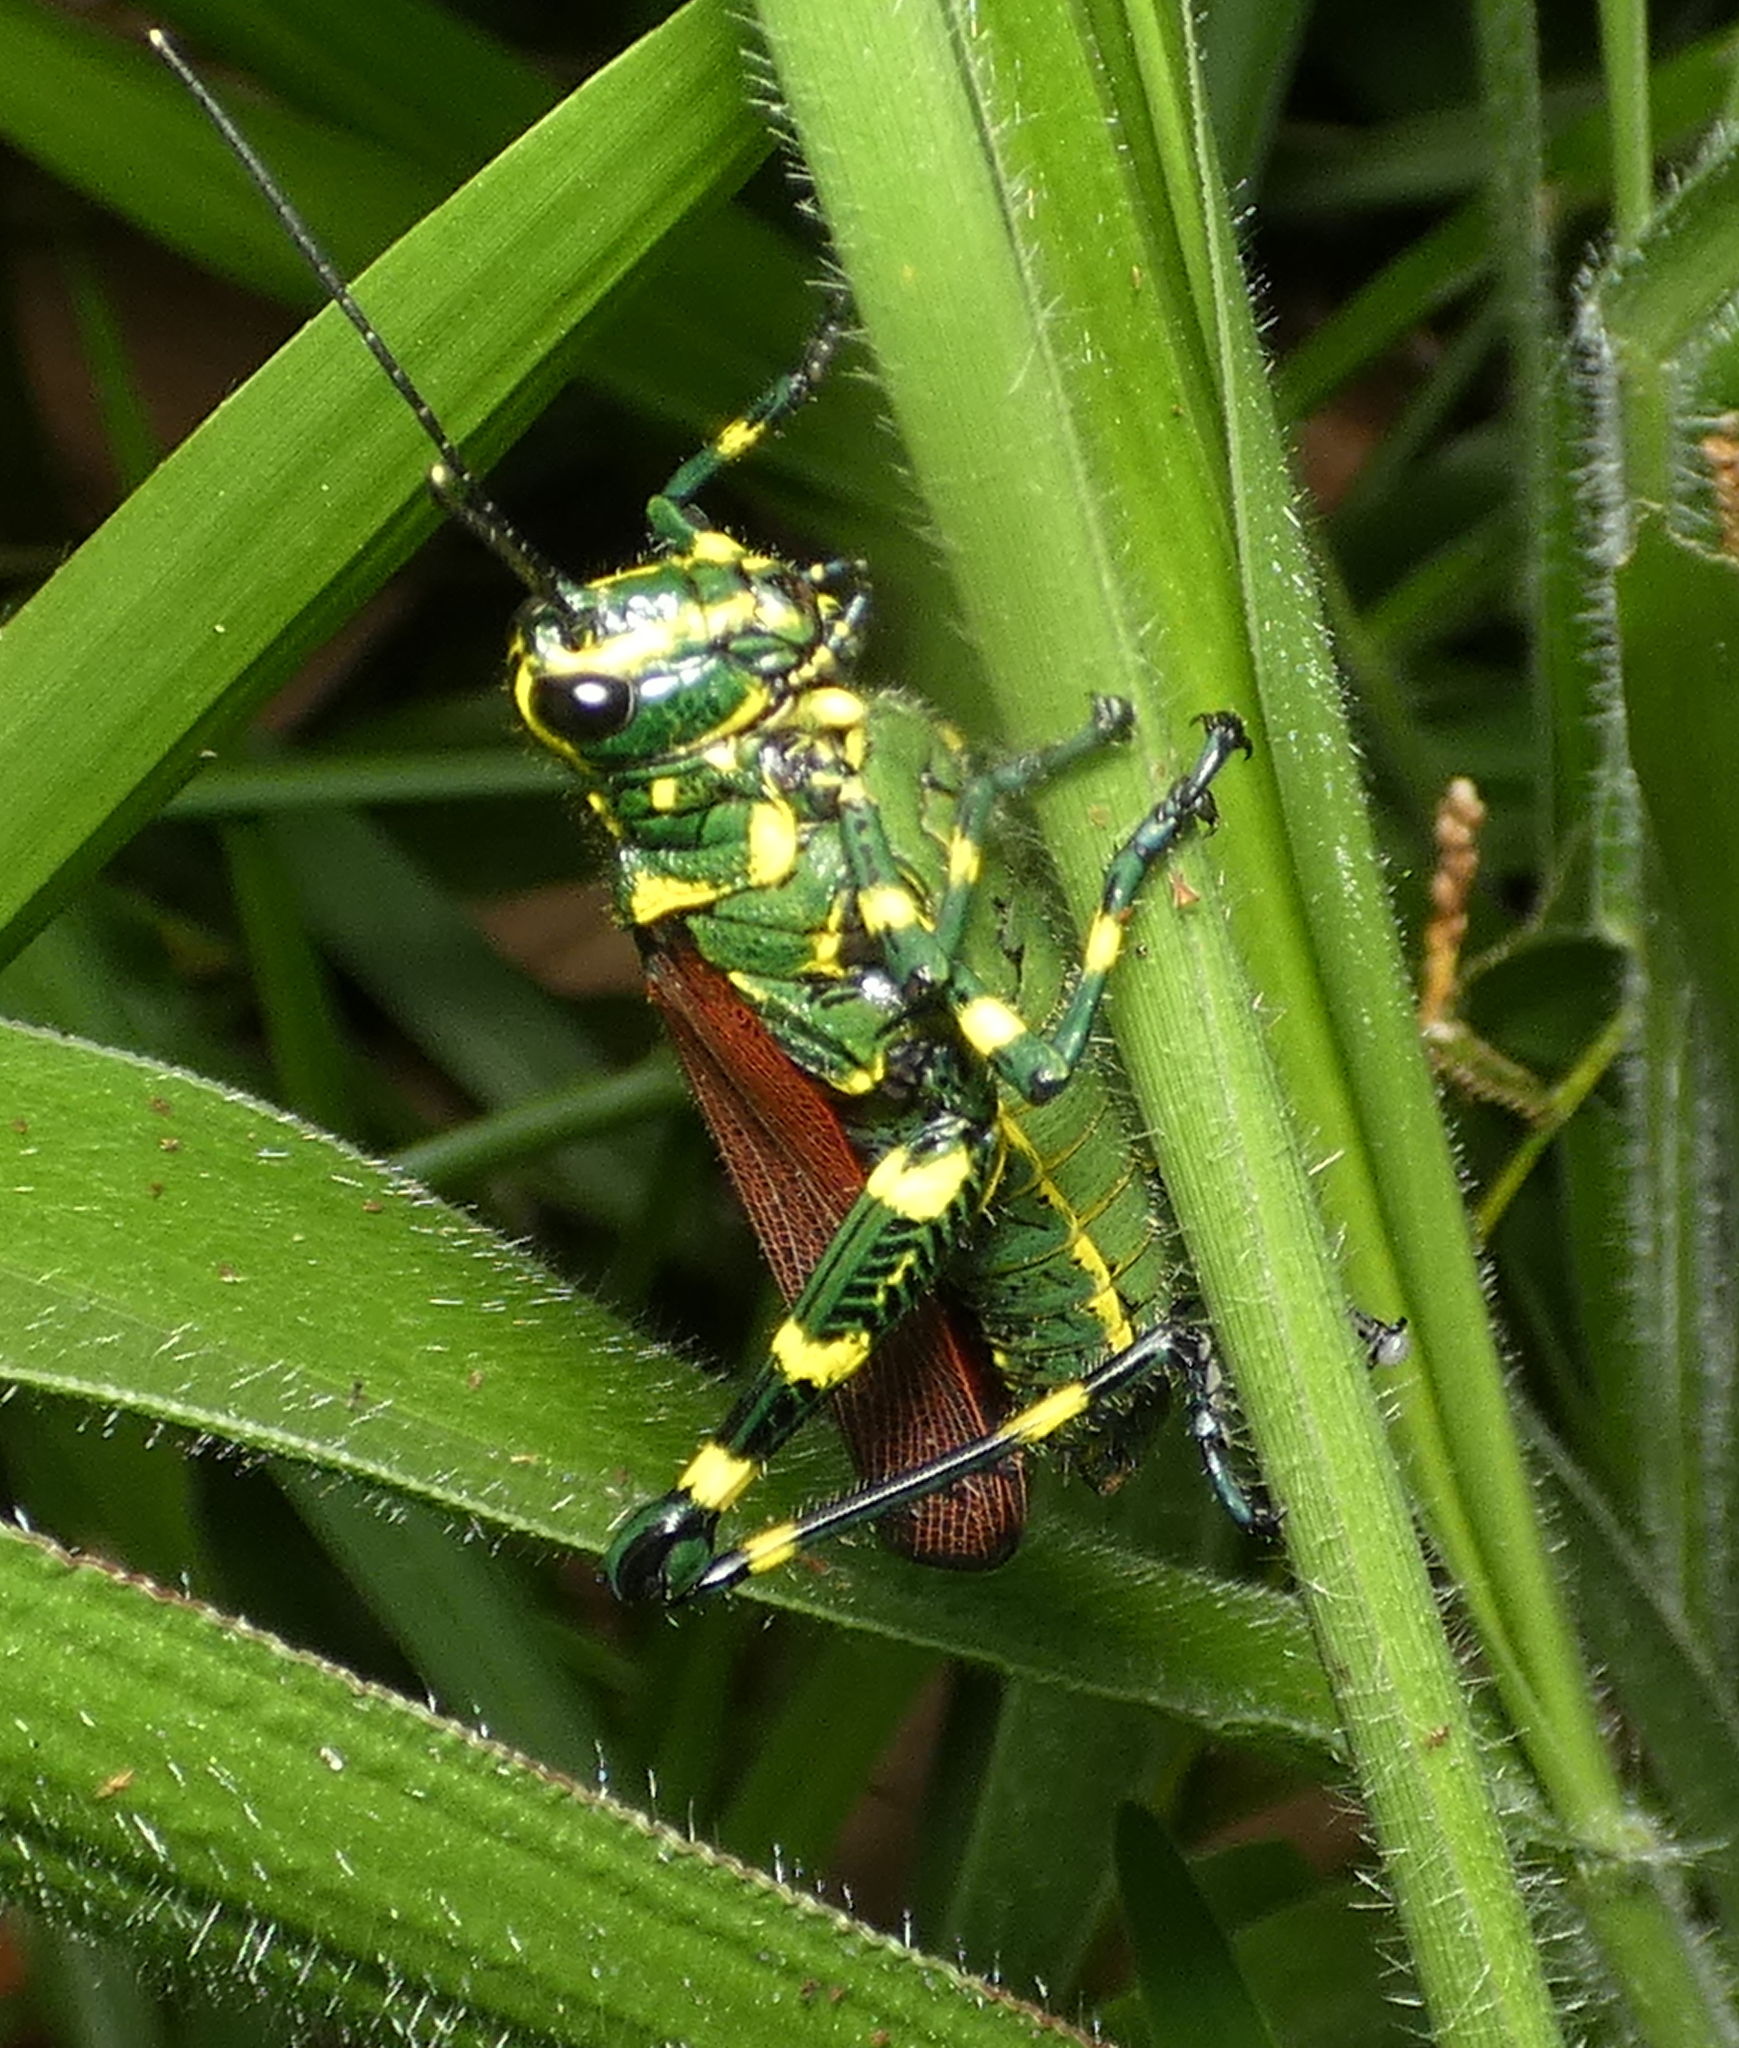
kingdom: Animalia
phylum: Arthropoda
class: Insecta
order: Orthoptera
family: Romaleidae
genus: Chromacris
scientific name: Chromacris speciosa
